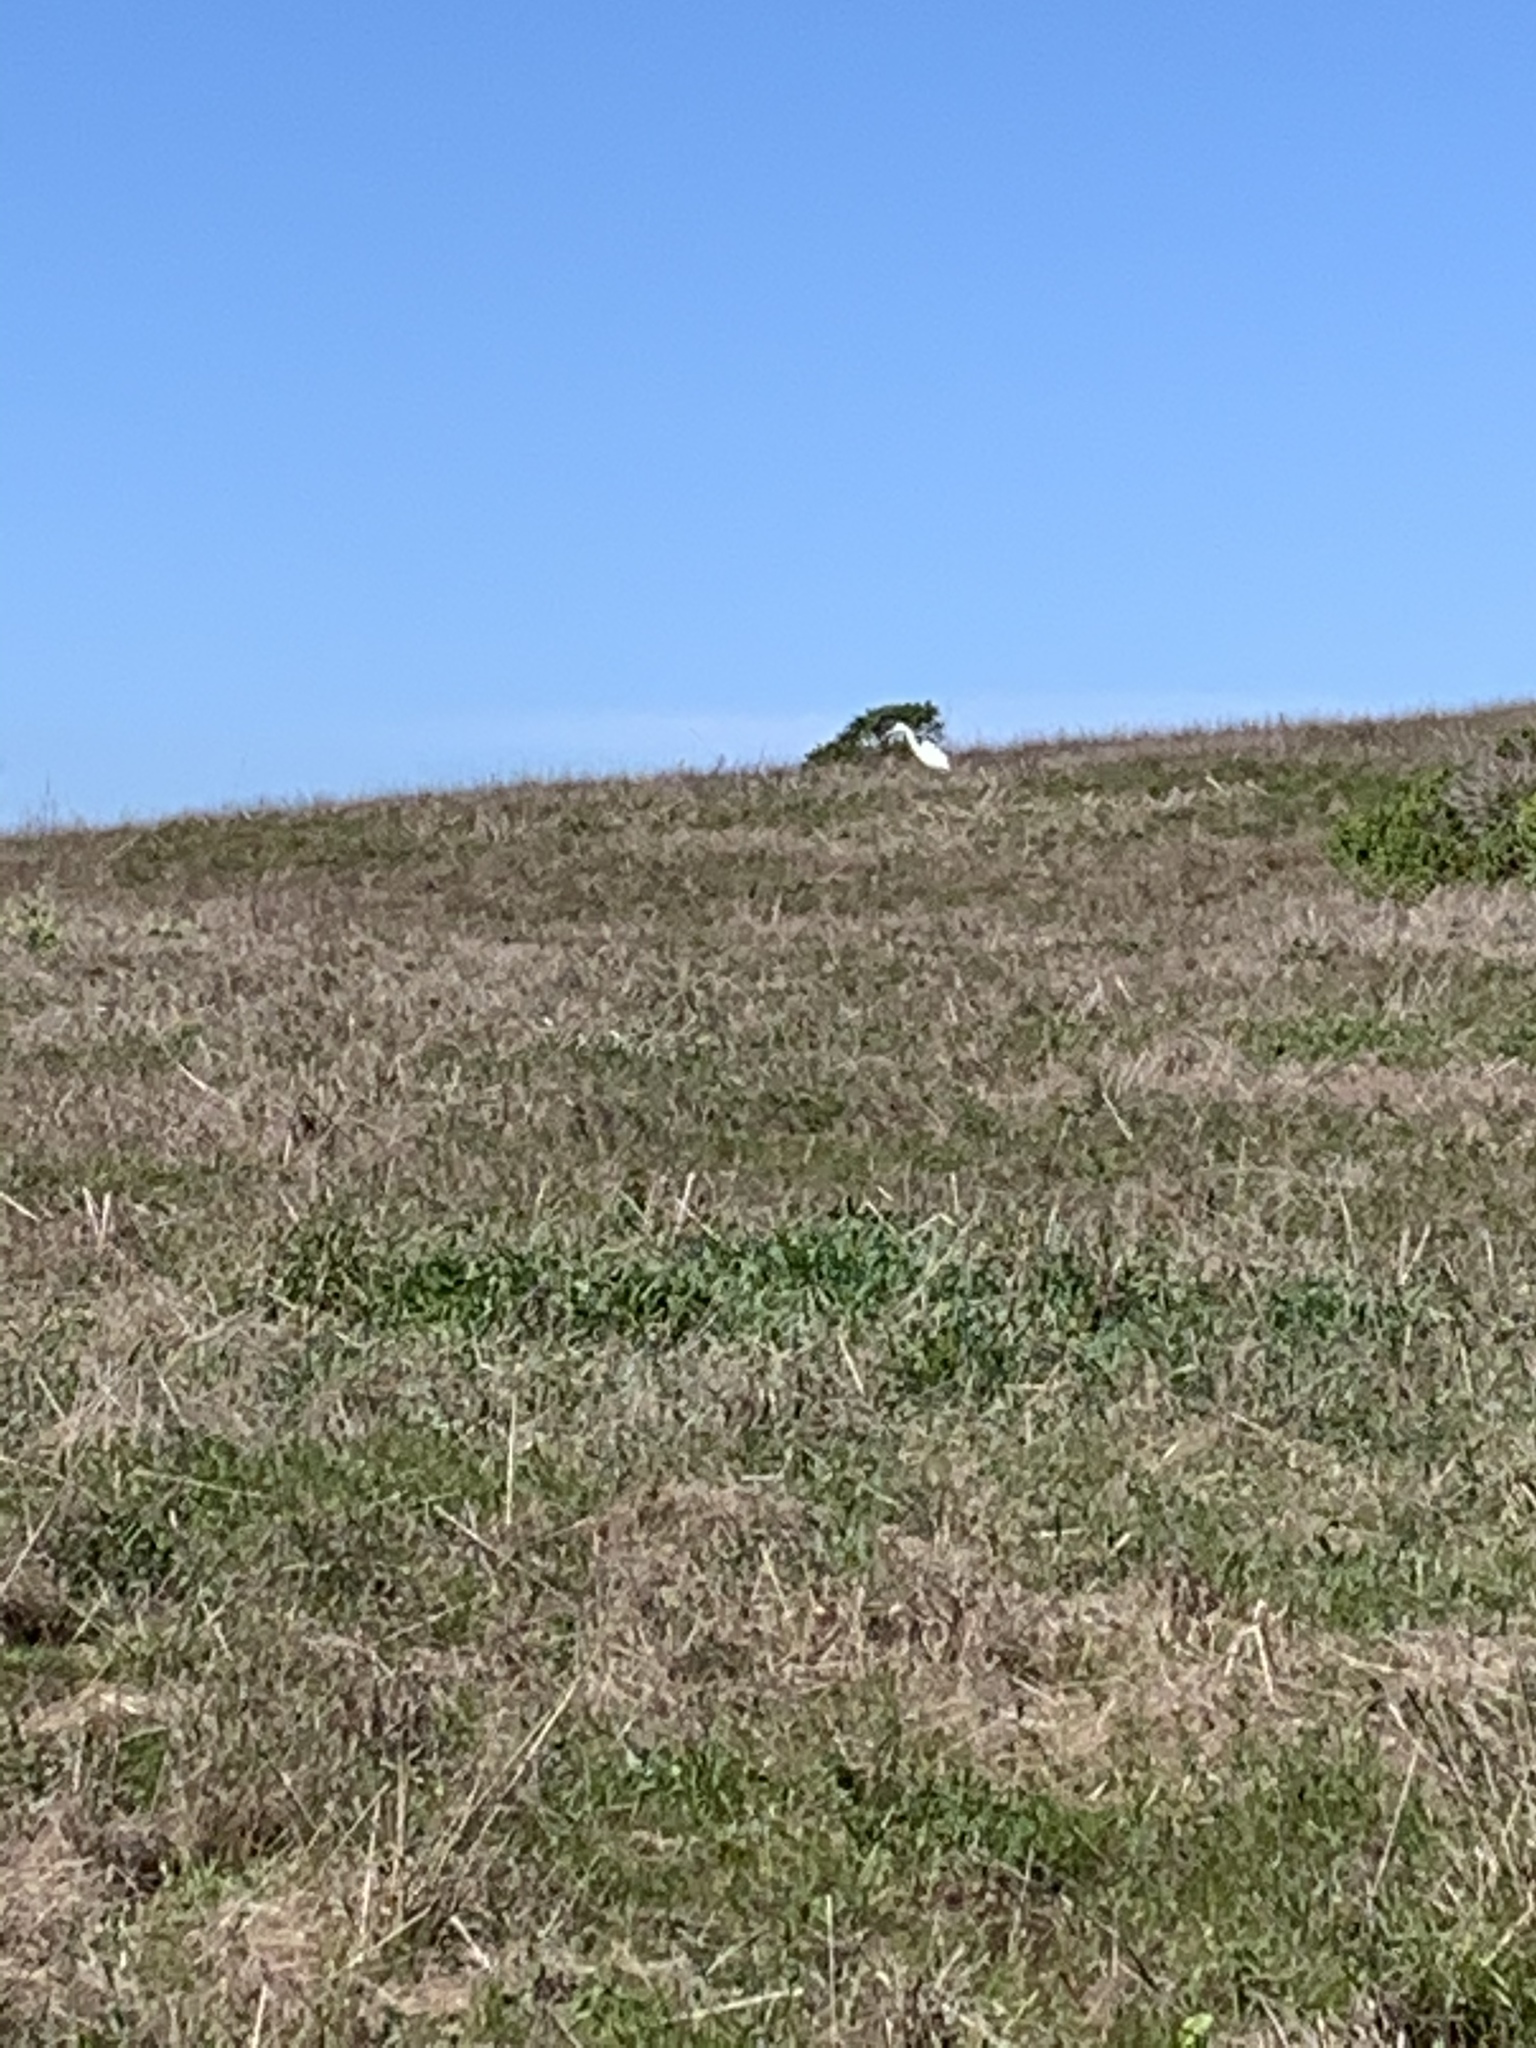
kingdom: Animalia
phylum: Chordata
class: Aves
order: Pelecaniformes
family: Ardeidae
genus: Ardea
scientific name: Ardea alba
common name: Great egret
